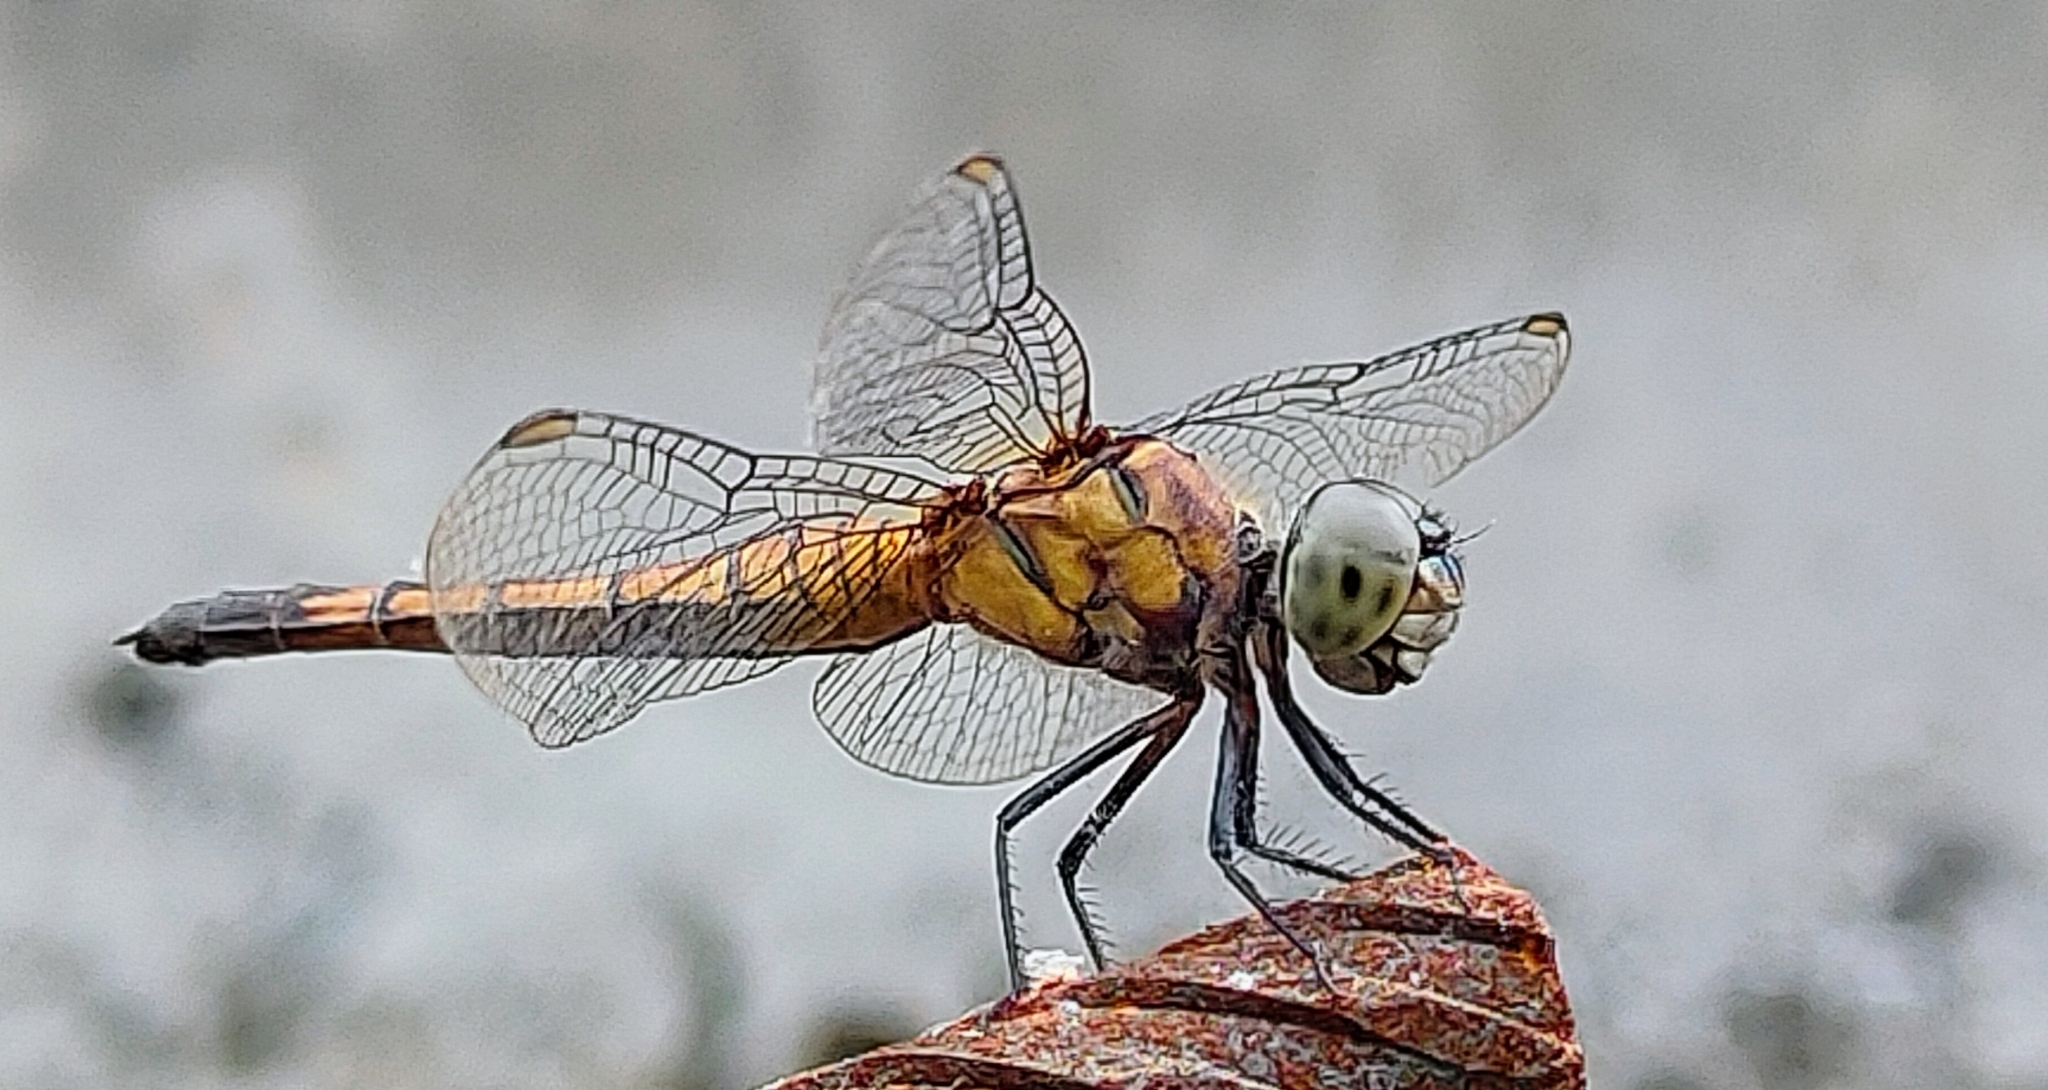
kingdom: Animalia
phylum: Arthropoda
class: Insecta
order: Odonata
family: Libellulidae
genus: Brachydiplax
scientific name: Brachydiplax chalybea
